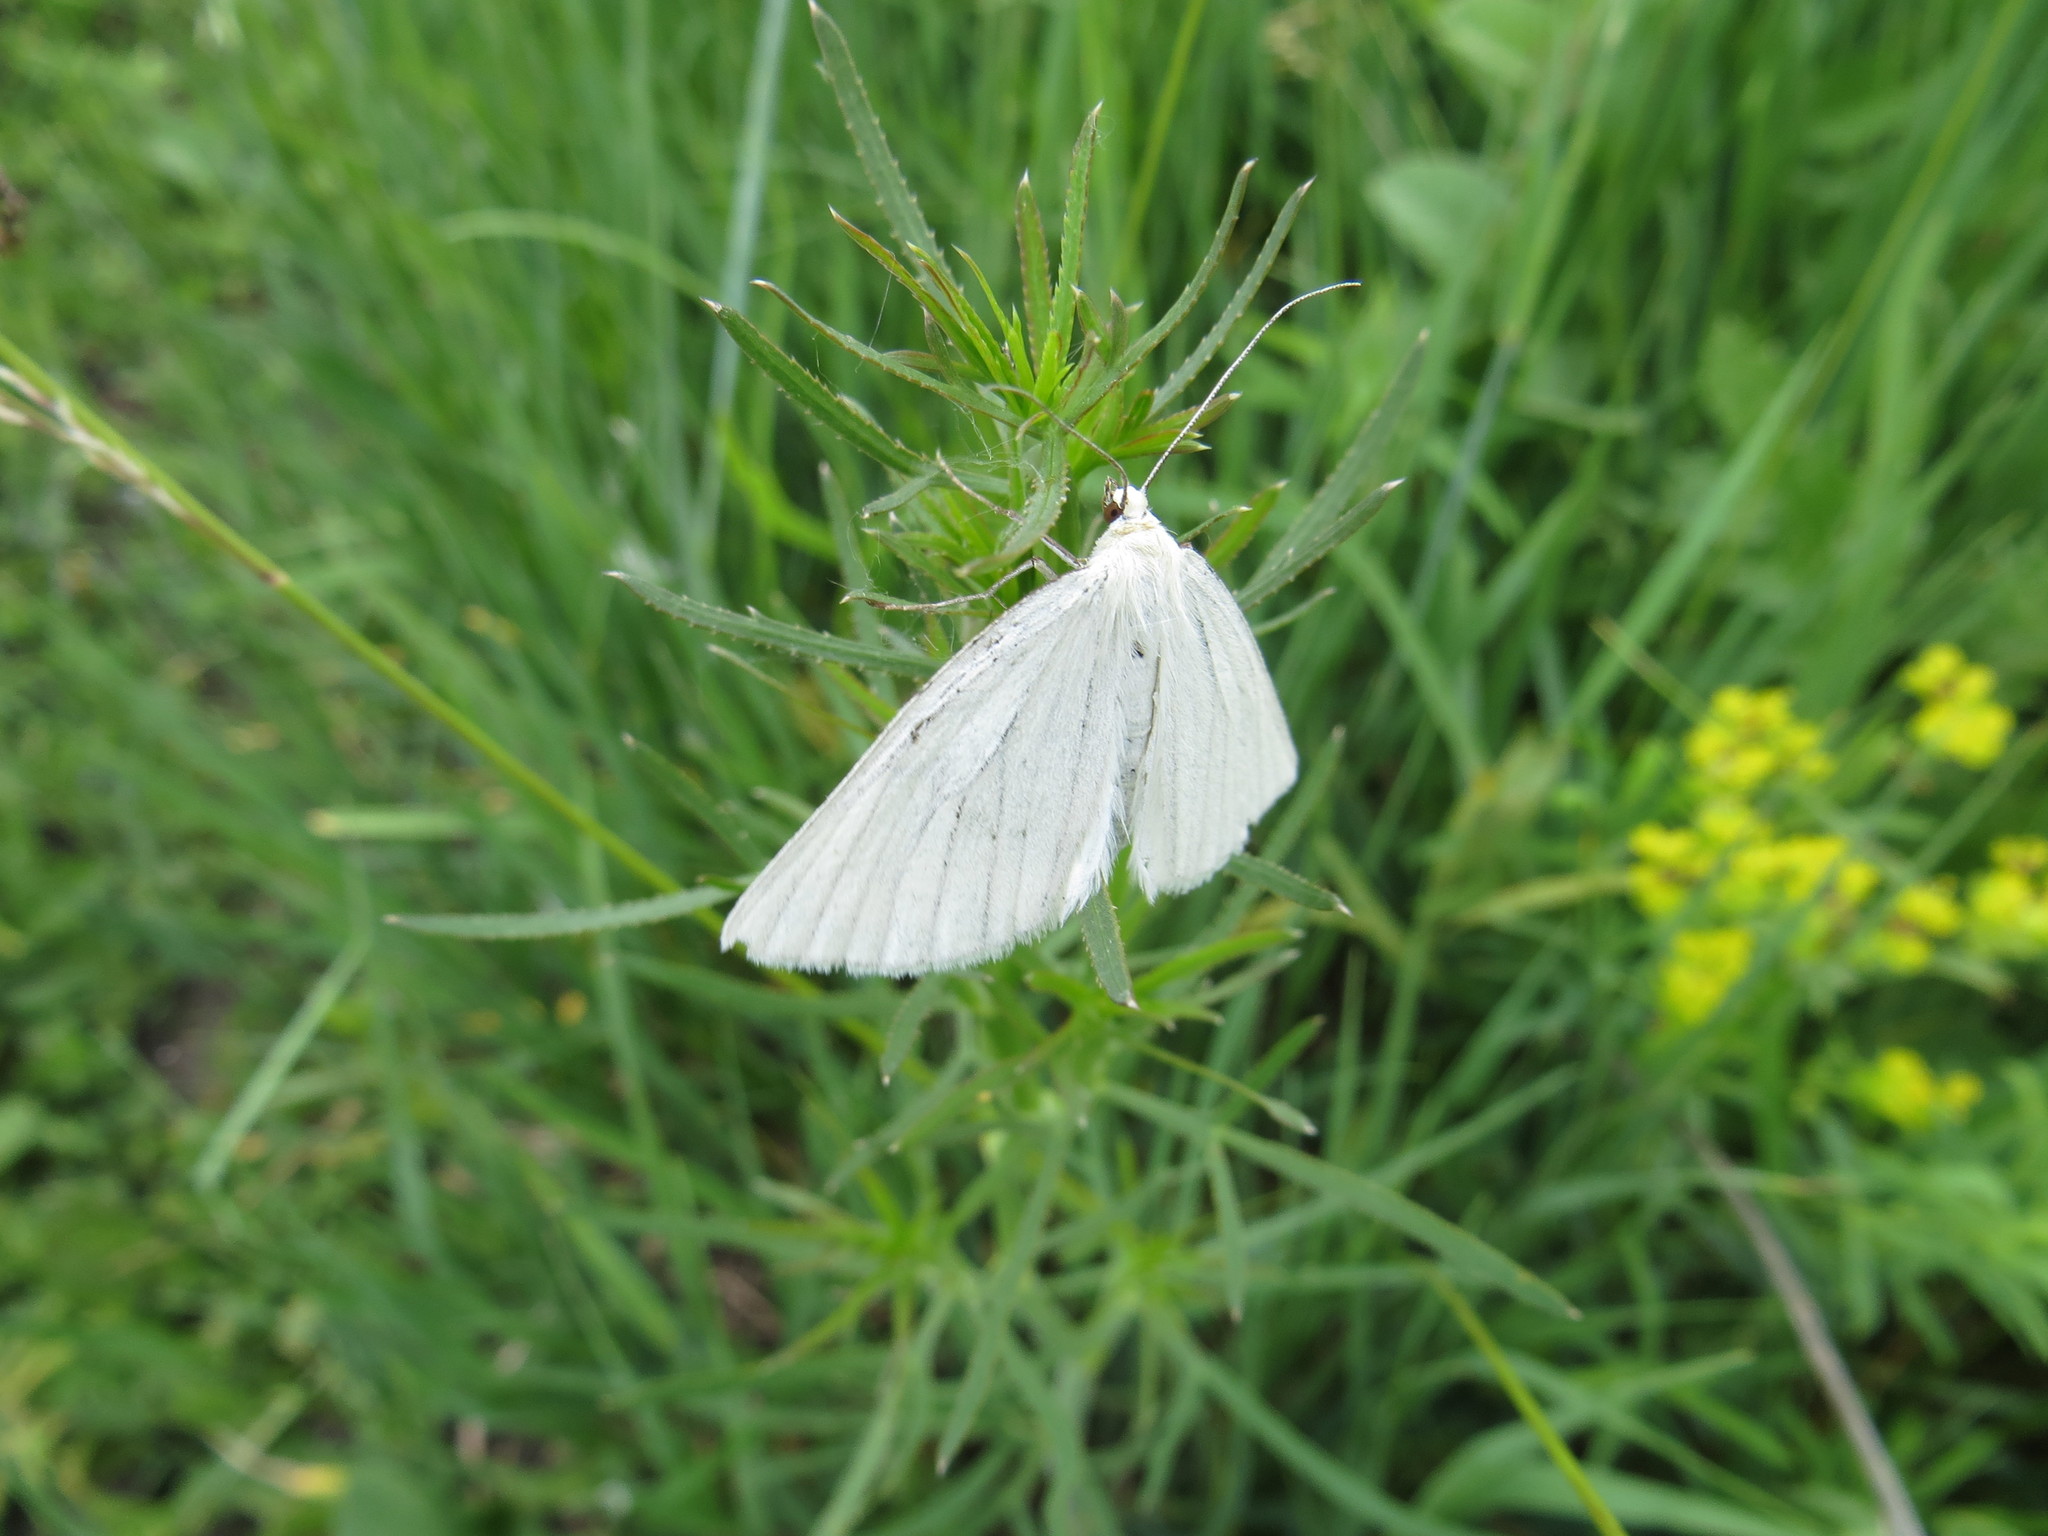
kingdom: Animalia
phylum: Arthropoda
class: Insecta
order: Lepidoptera
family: Geometridae
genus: Siona
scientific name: Siona lineata
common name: Black-veined moth
